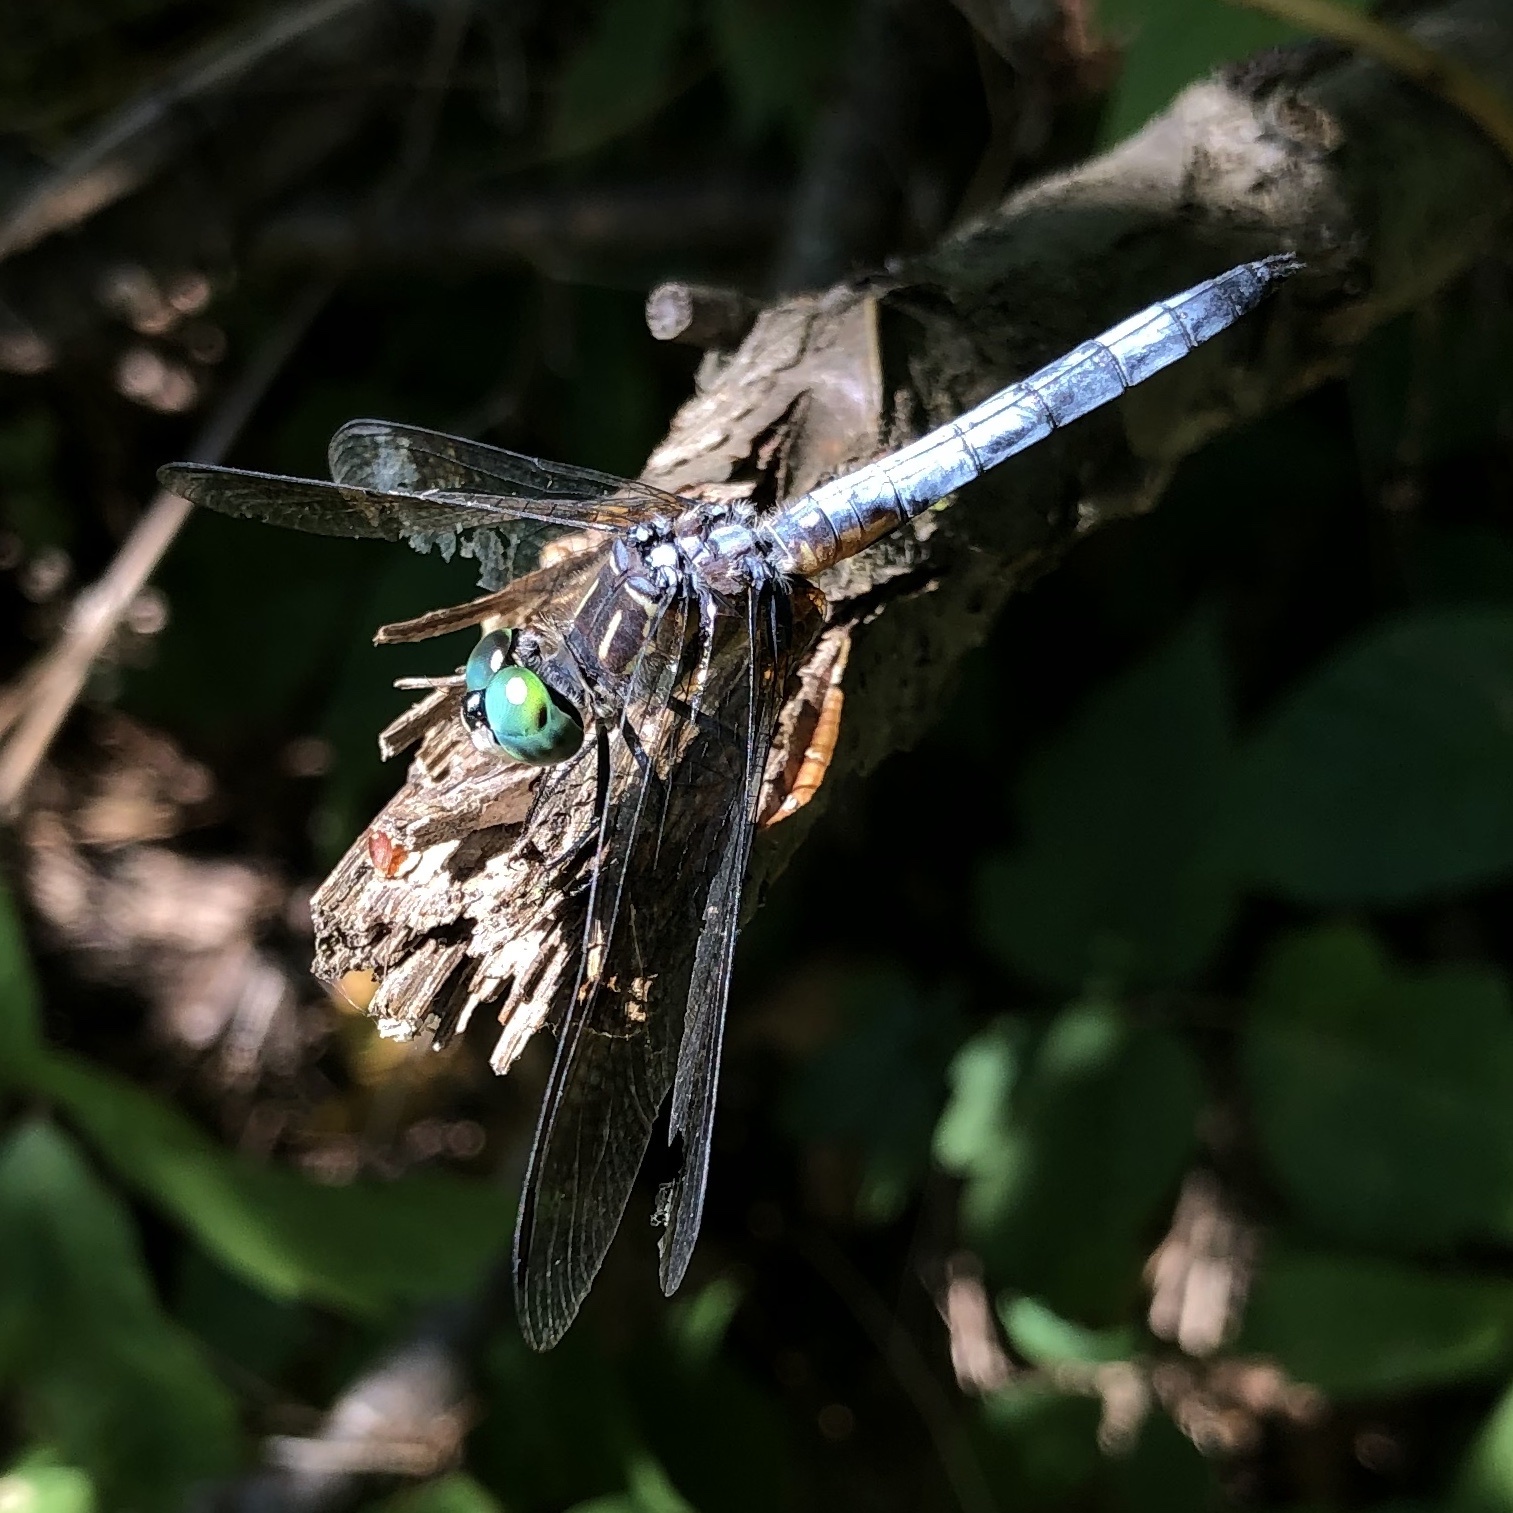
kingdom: Animalia
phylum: Arthropoda
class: Insecta
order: Odonata
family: Libellulidae
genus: Pachydiplax
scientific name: Pachydiplax longipennis
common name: Blue dasher
